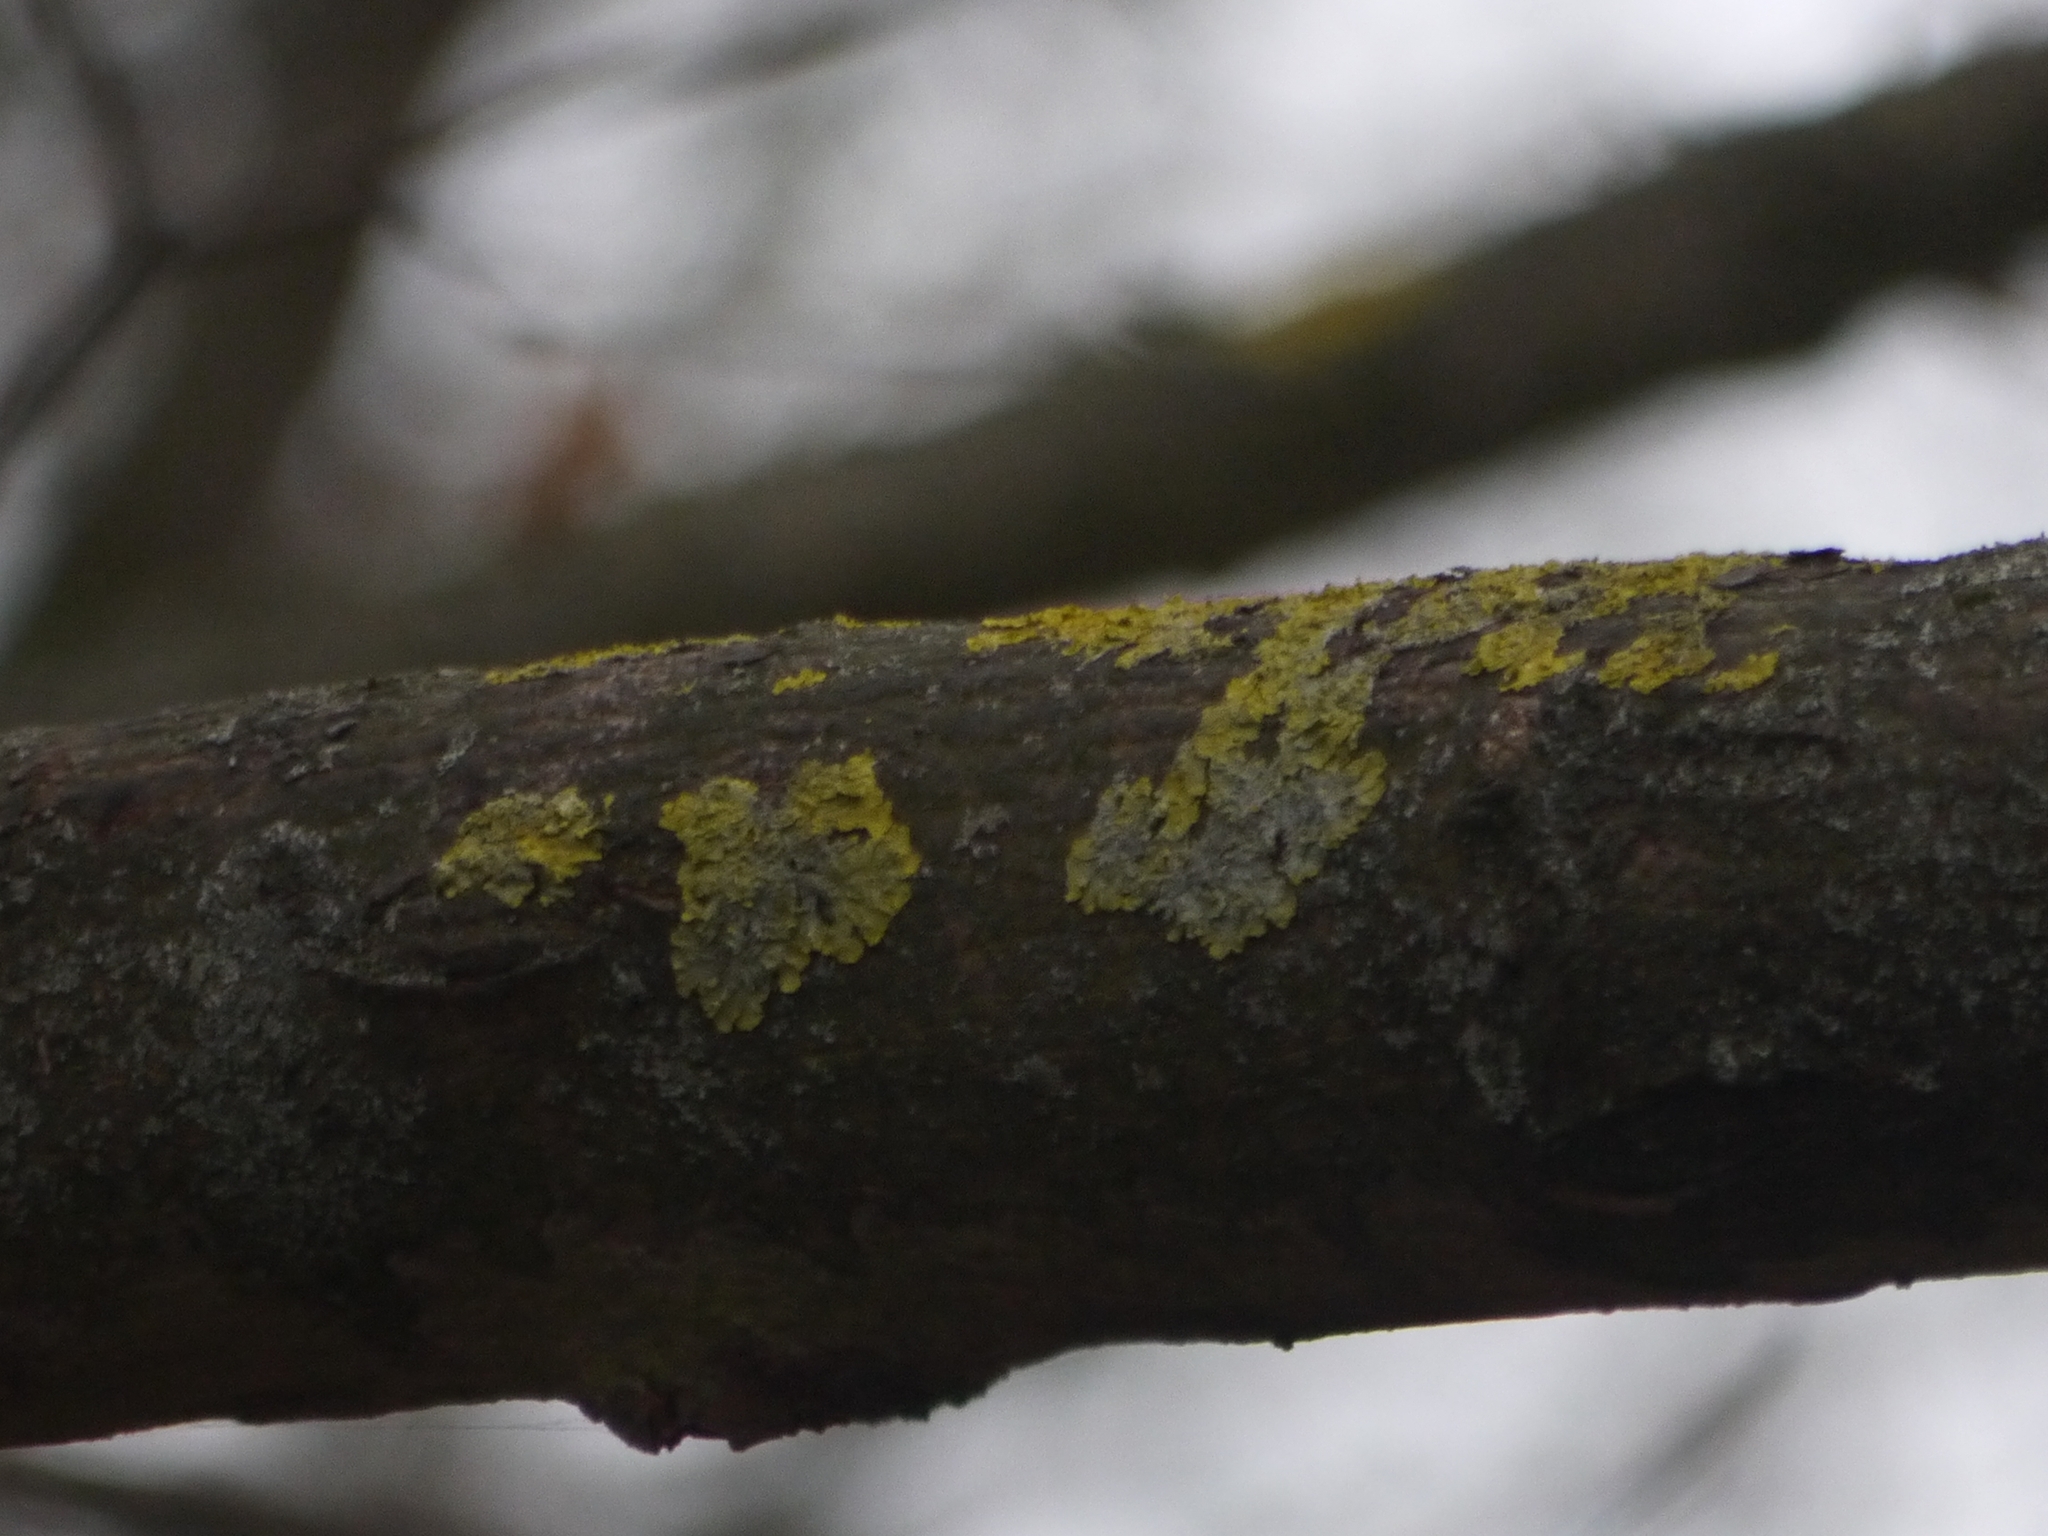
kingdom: Fungi
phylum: Ascomycota
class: Lecanoromycetes
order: Teloschistales
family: Teloschistaceae
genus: Xanthoria
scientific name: Xanthoria parietina
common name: Common orange lichen
